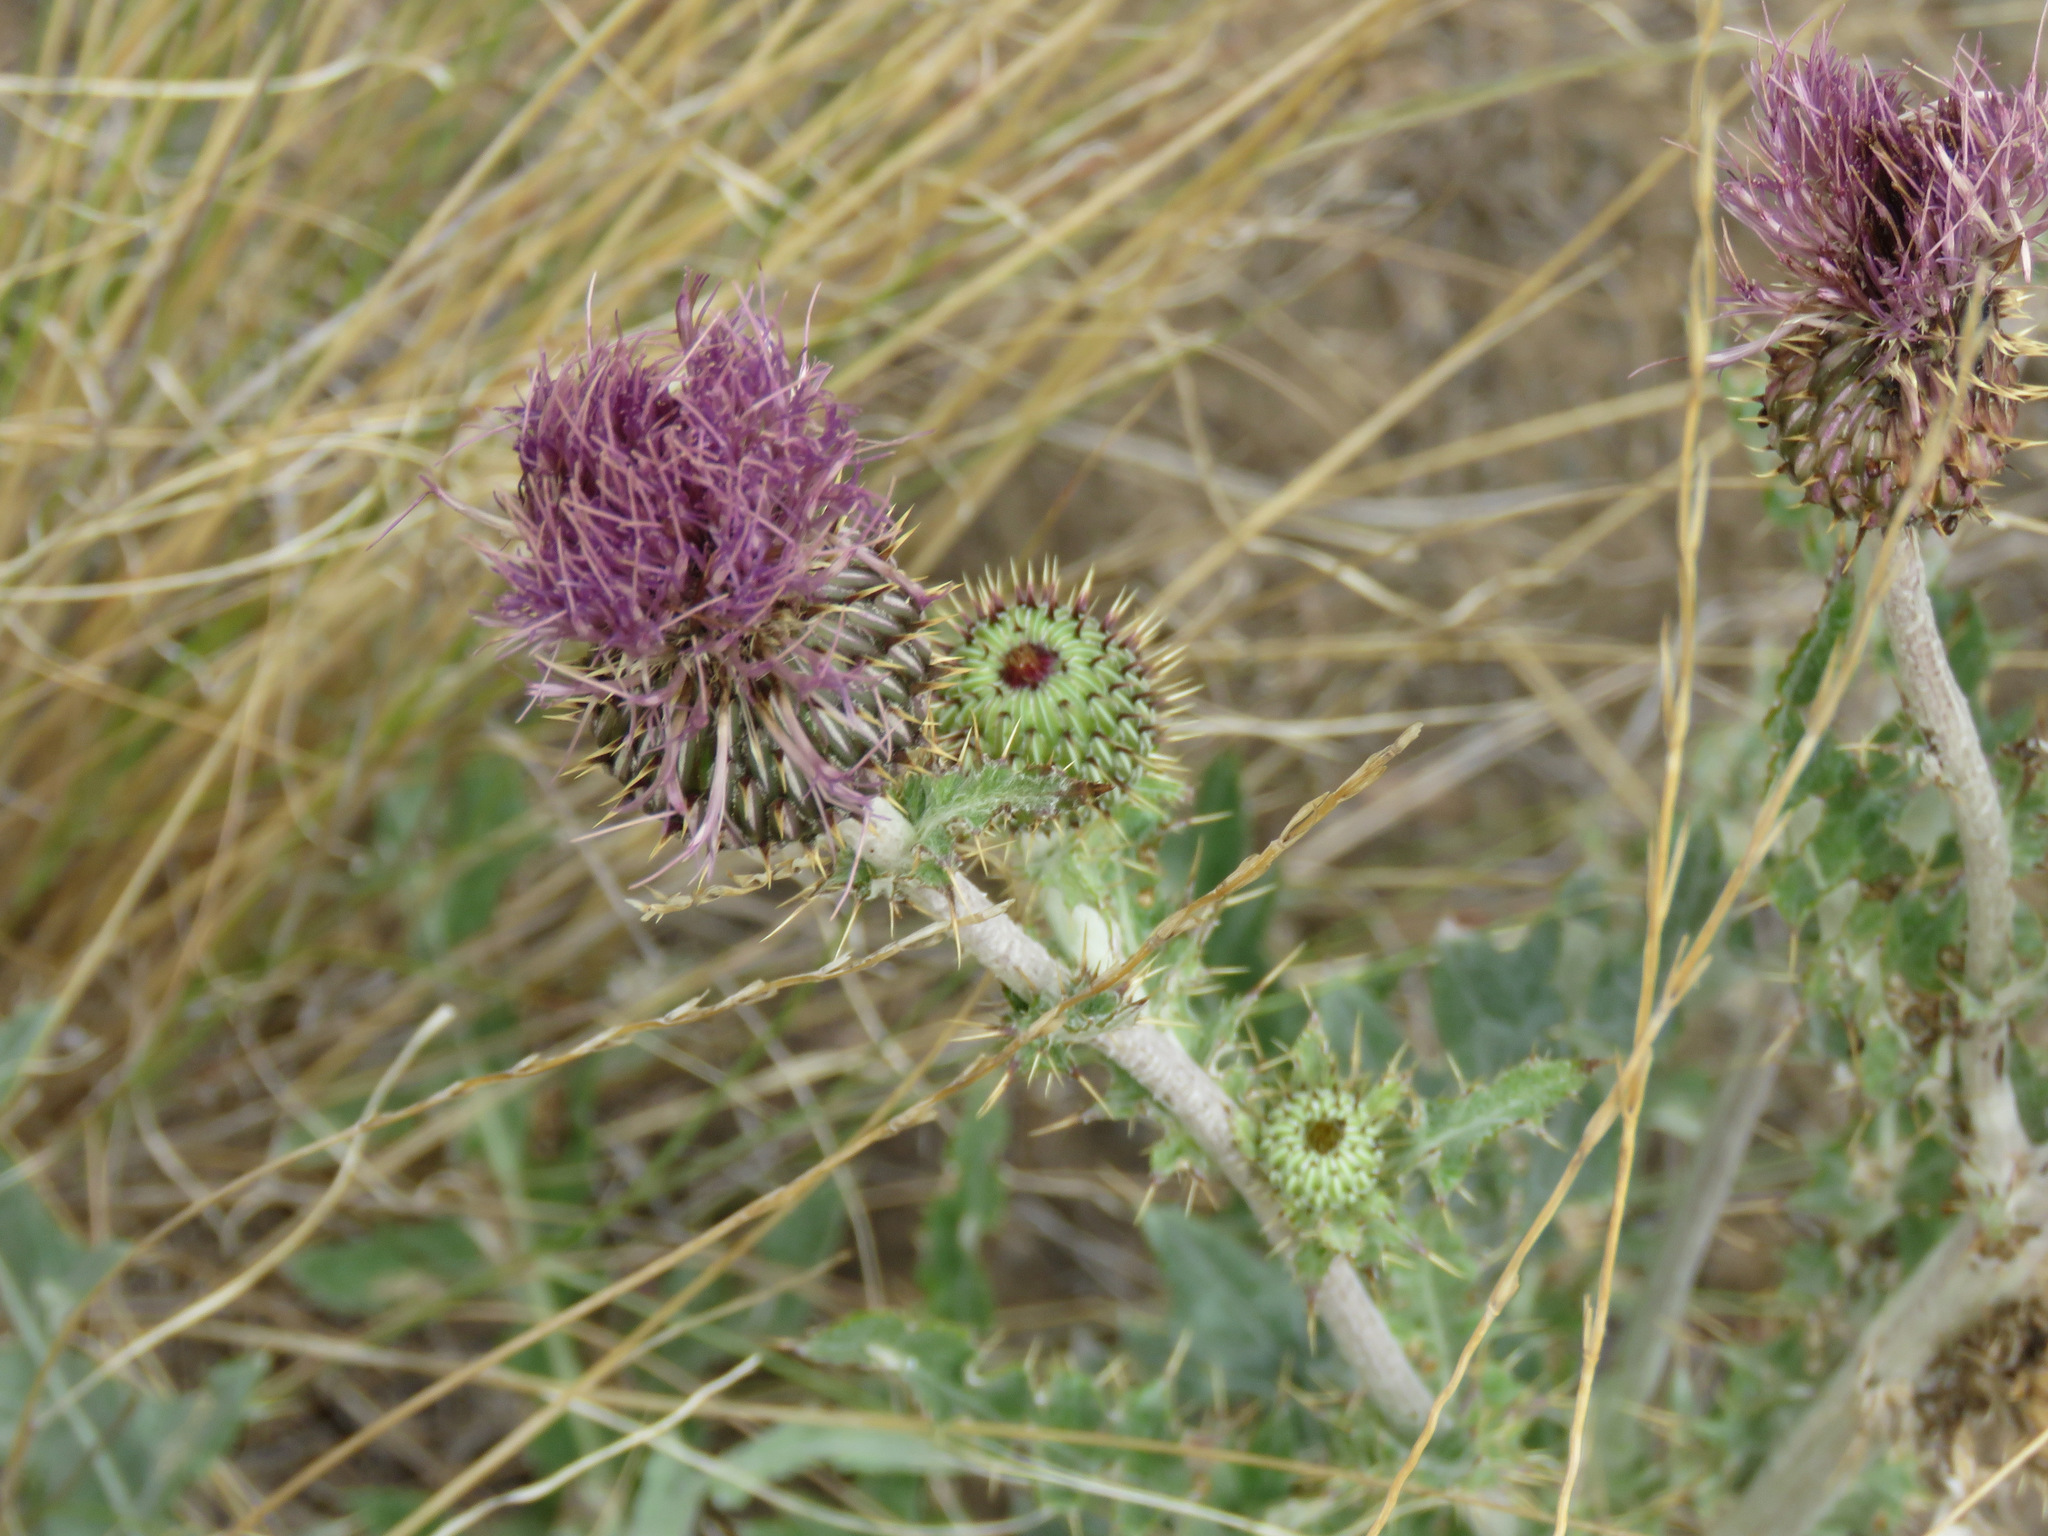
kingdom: Plantae
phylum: Tracheophyta
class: Magnoliopsida
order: Asterales
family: Asteraceae
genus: Cirsium
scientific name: Cirsium undulatum
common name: Pasture thistle
